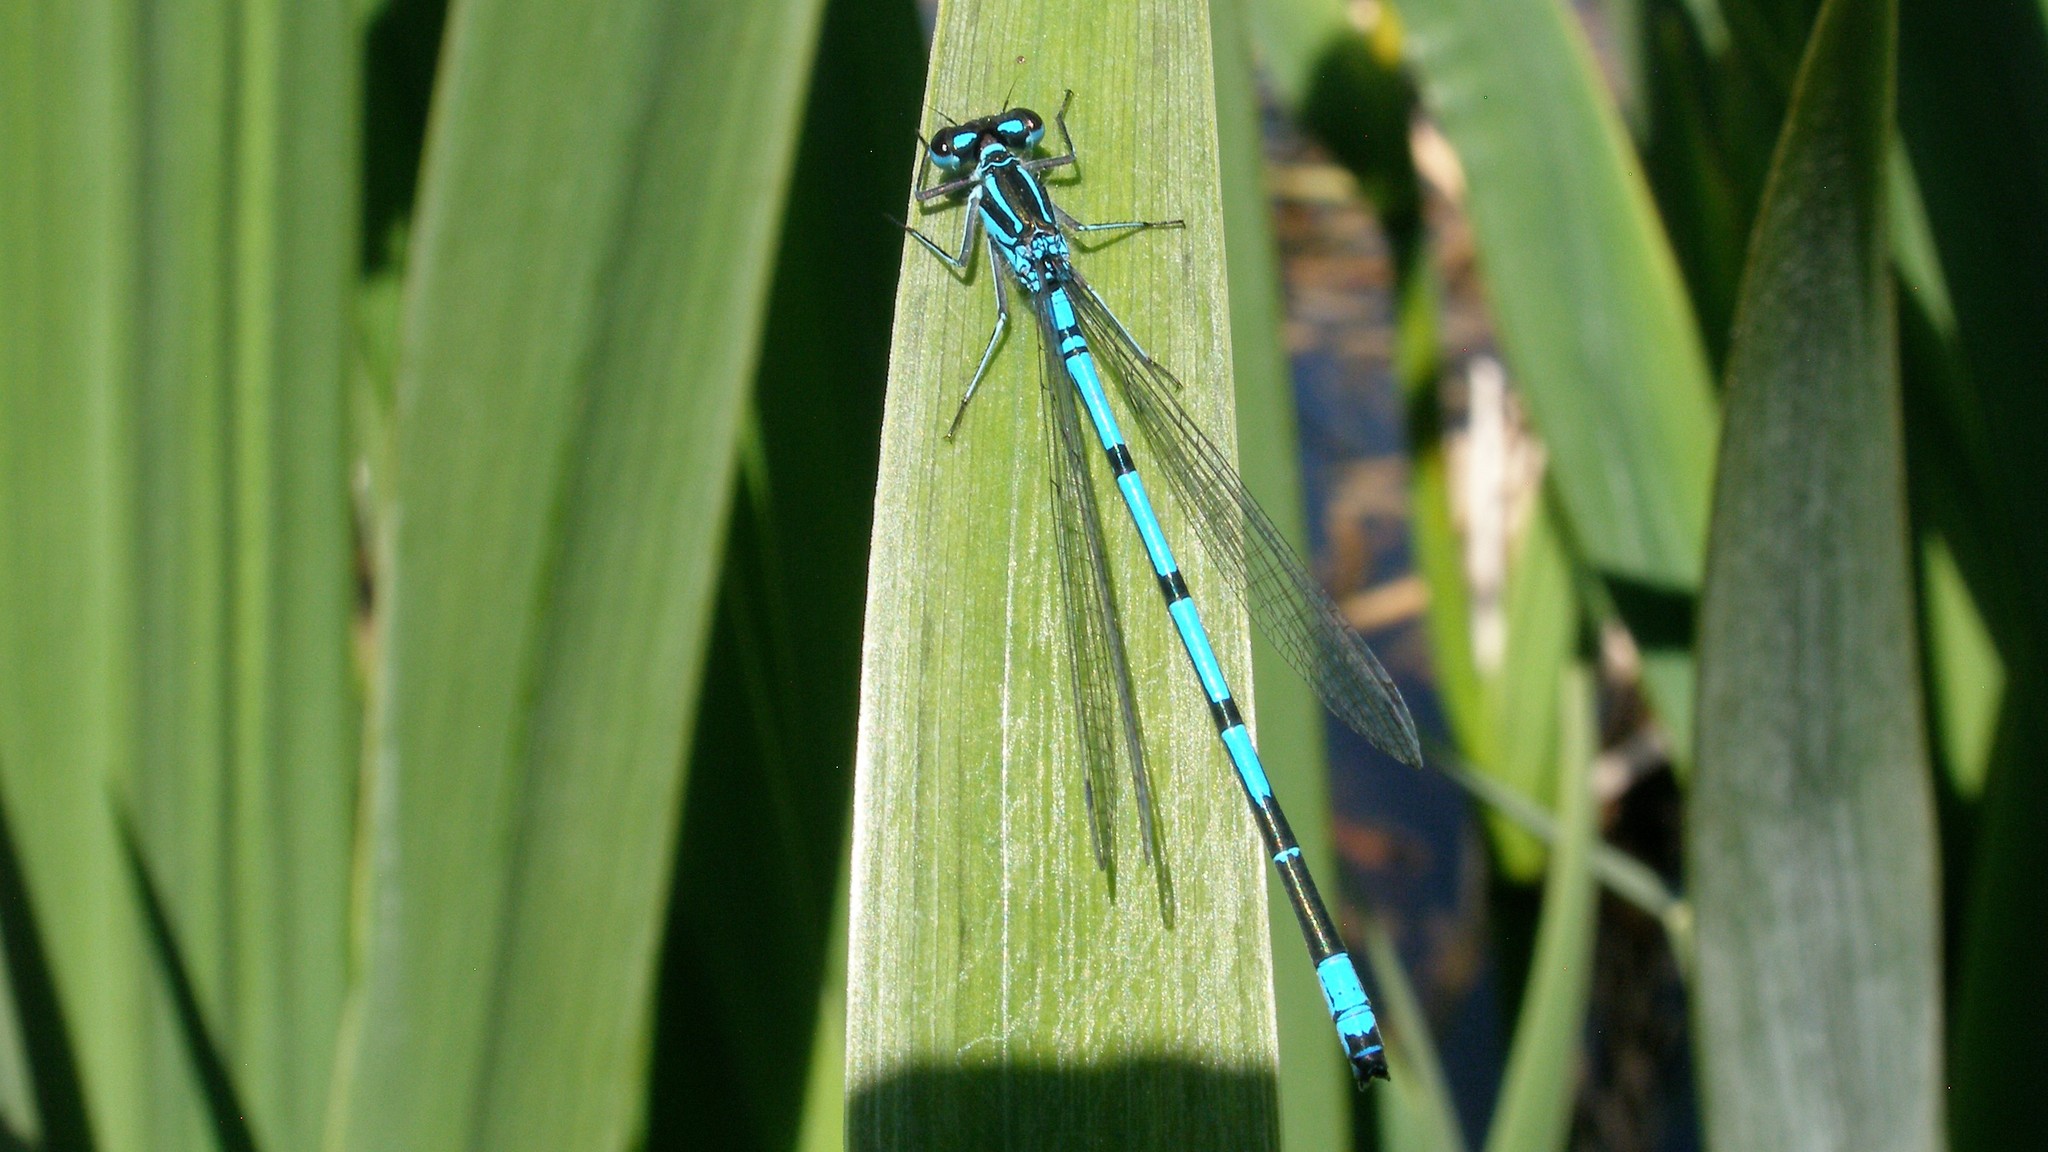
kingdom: Animalia
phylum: Arthropoda
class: Insecta
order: Odonata
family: Coenagrionidae
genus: Coenagrion
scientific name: Coenagrion puella
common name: Azure damselfly
